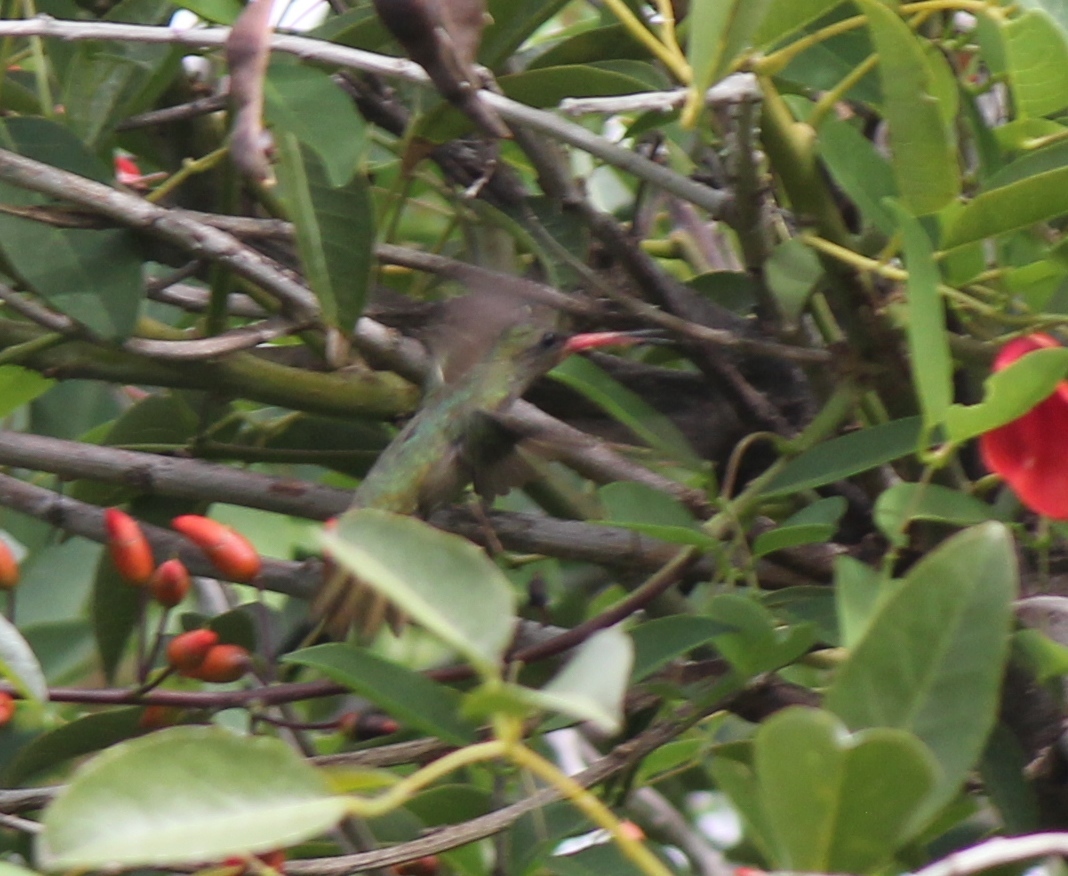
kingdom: Animalia
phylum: Chordata
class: Aves
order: Apodiformes
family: Trochilidae
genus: Hylocharis
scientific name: Hylocharis chrysura
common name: Gilded sapphire
